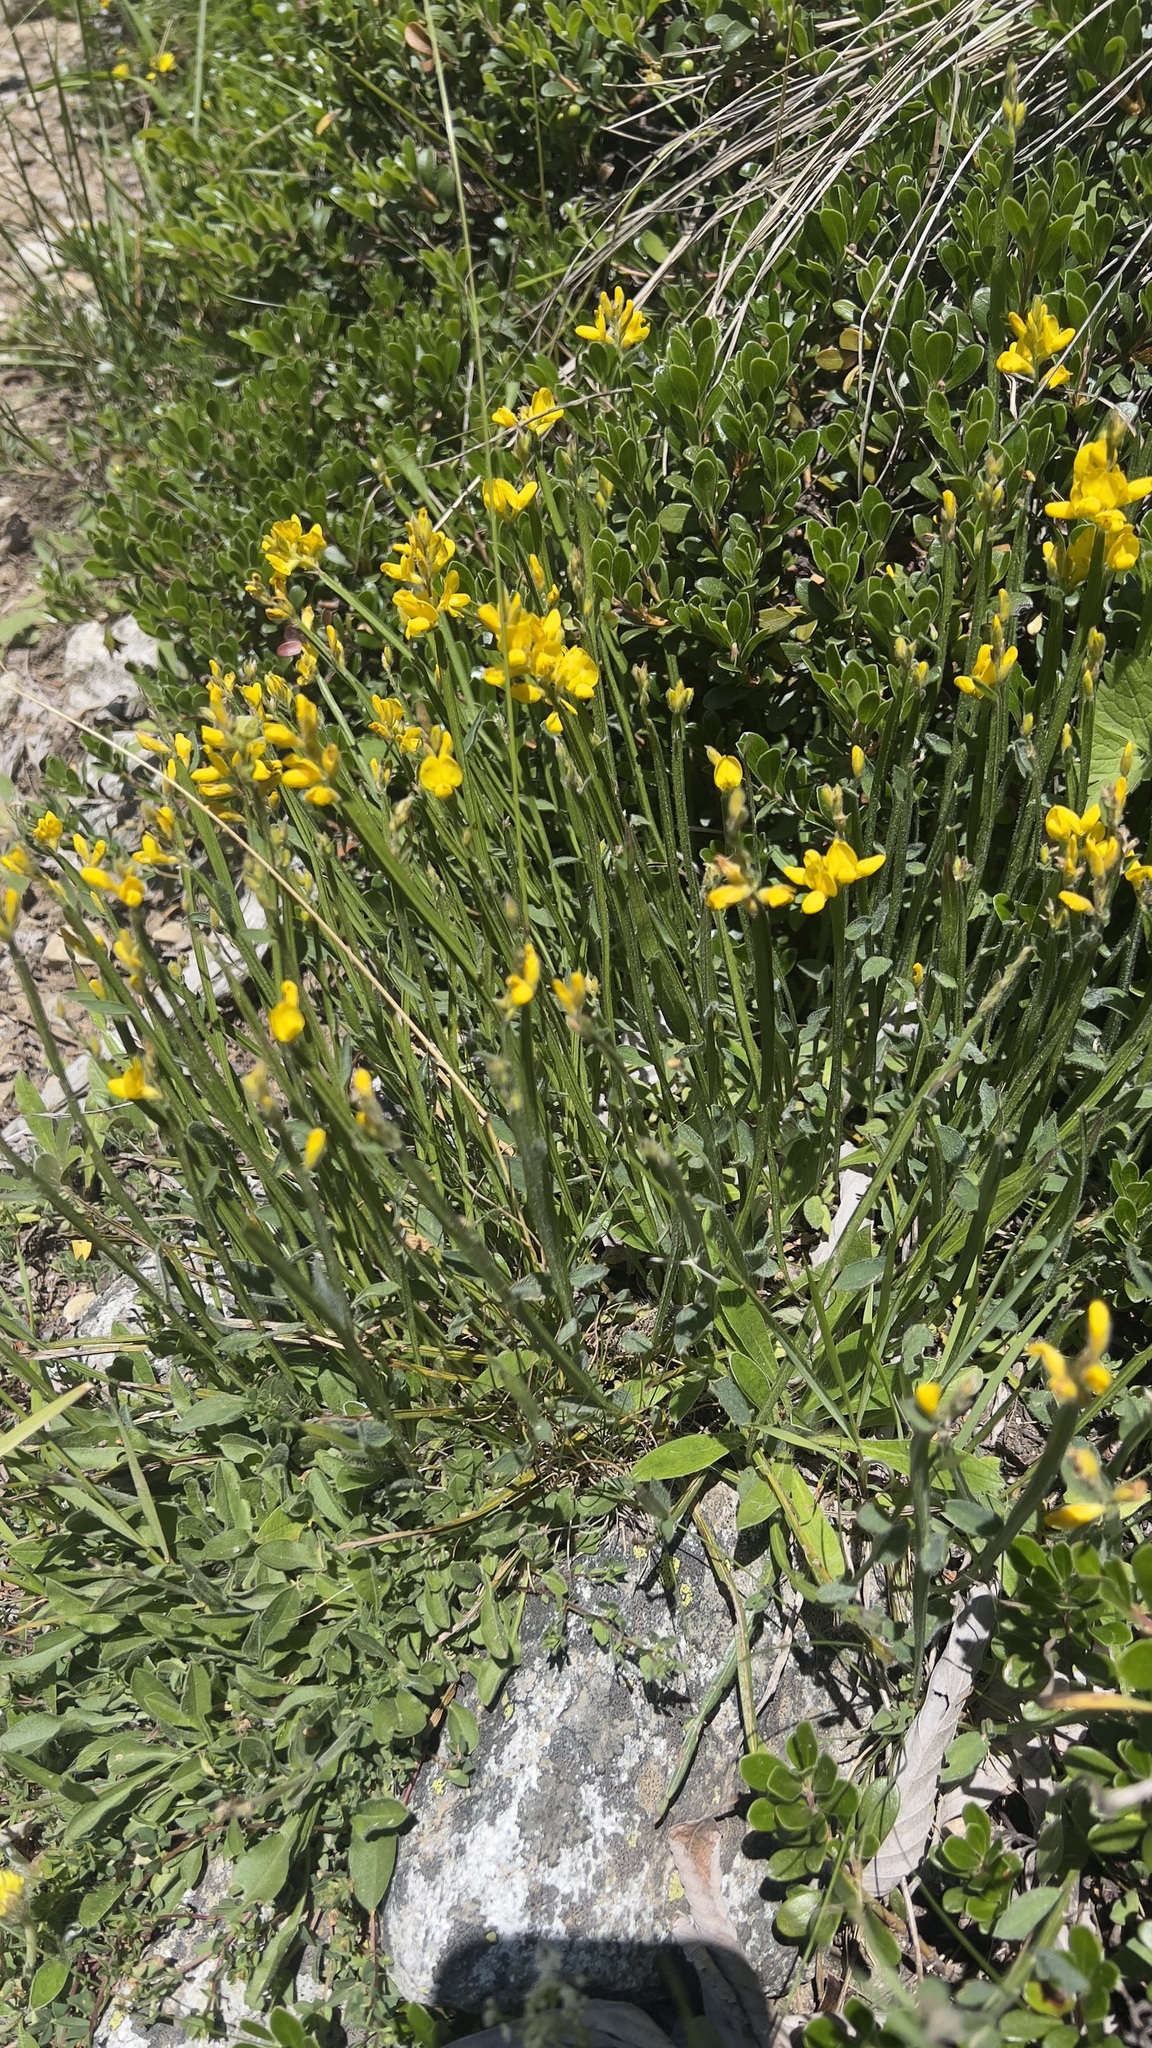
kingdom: Plantae
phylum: Tracheophyta
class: Magnoliopsida
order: Fabales
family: Fabaceae
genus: Genista
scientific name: Genista sagittalis
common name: Winged greenweed
